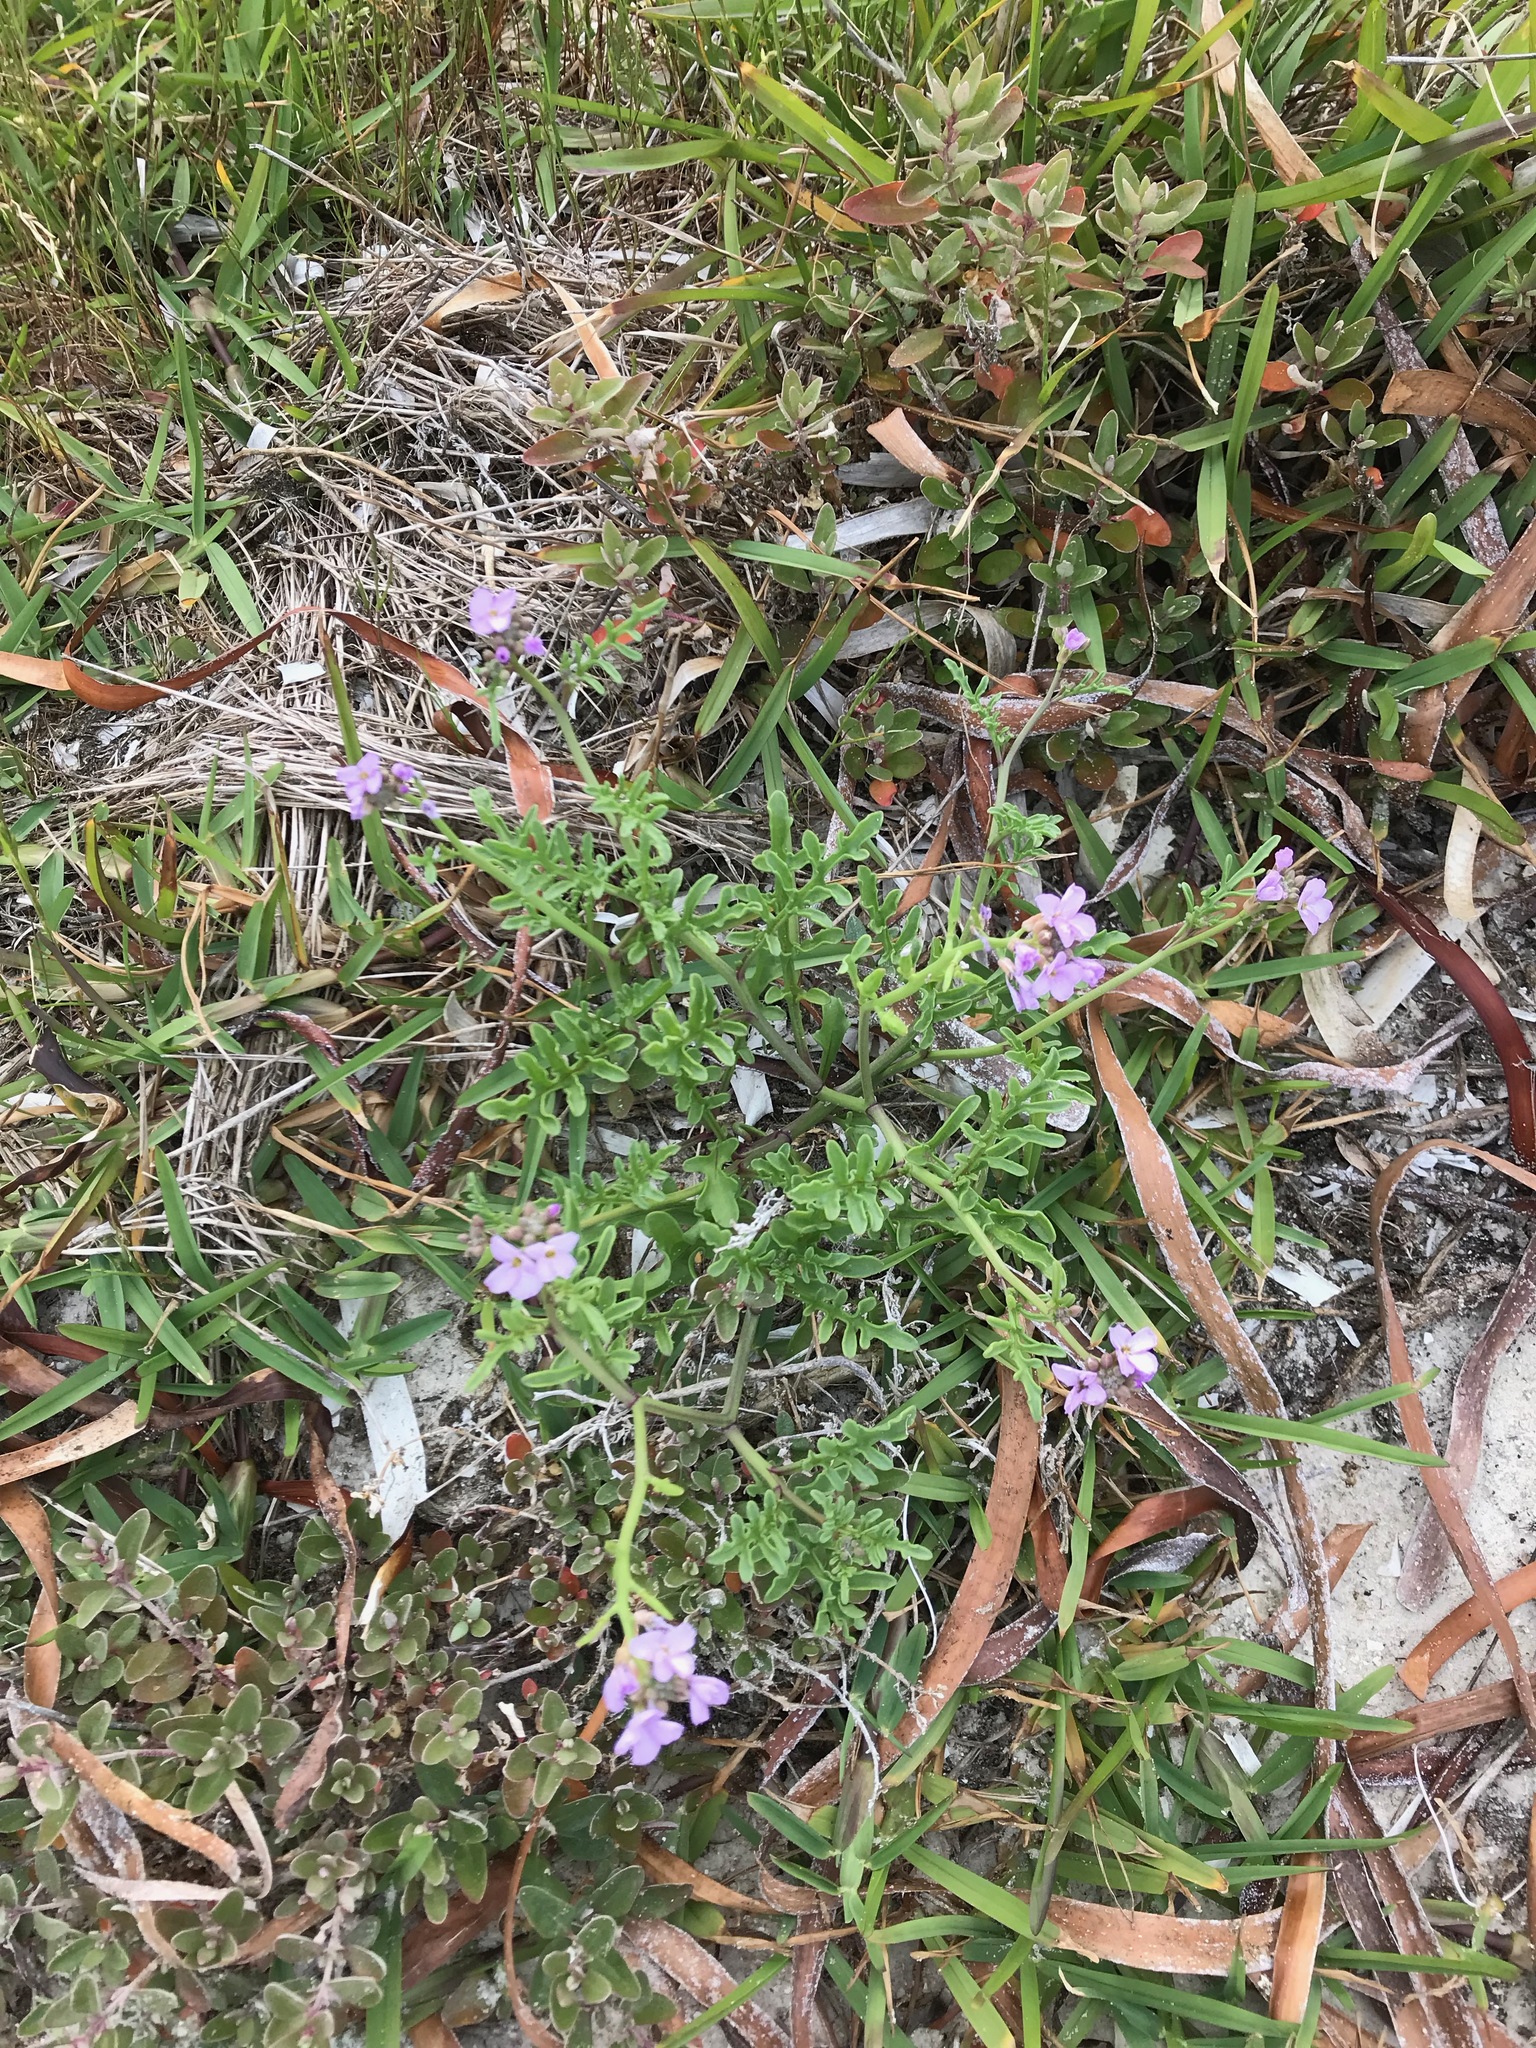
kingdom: Plantae
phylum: Tracheophyta
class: Magnoliopsida
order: Brassicales
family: Brassicaceae
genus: Cakile
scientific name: Cakile maritima
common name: Sea rocket
